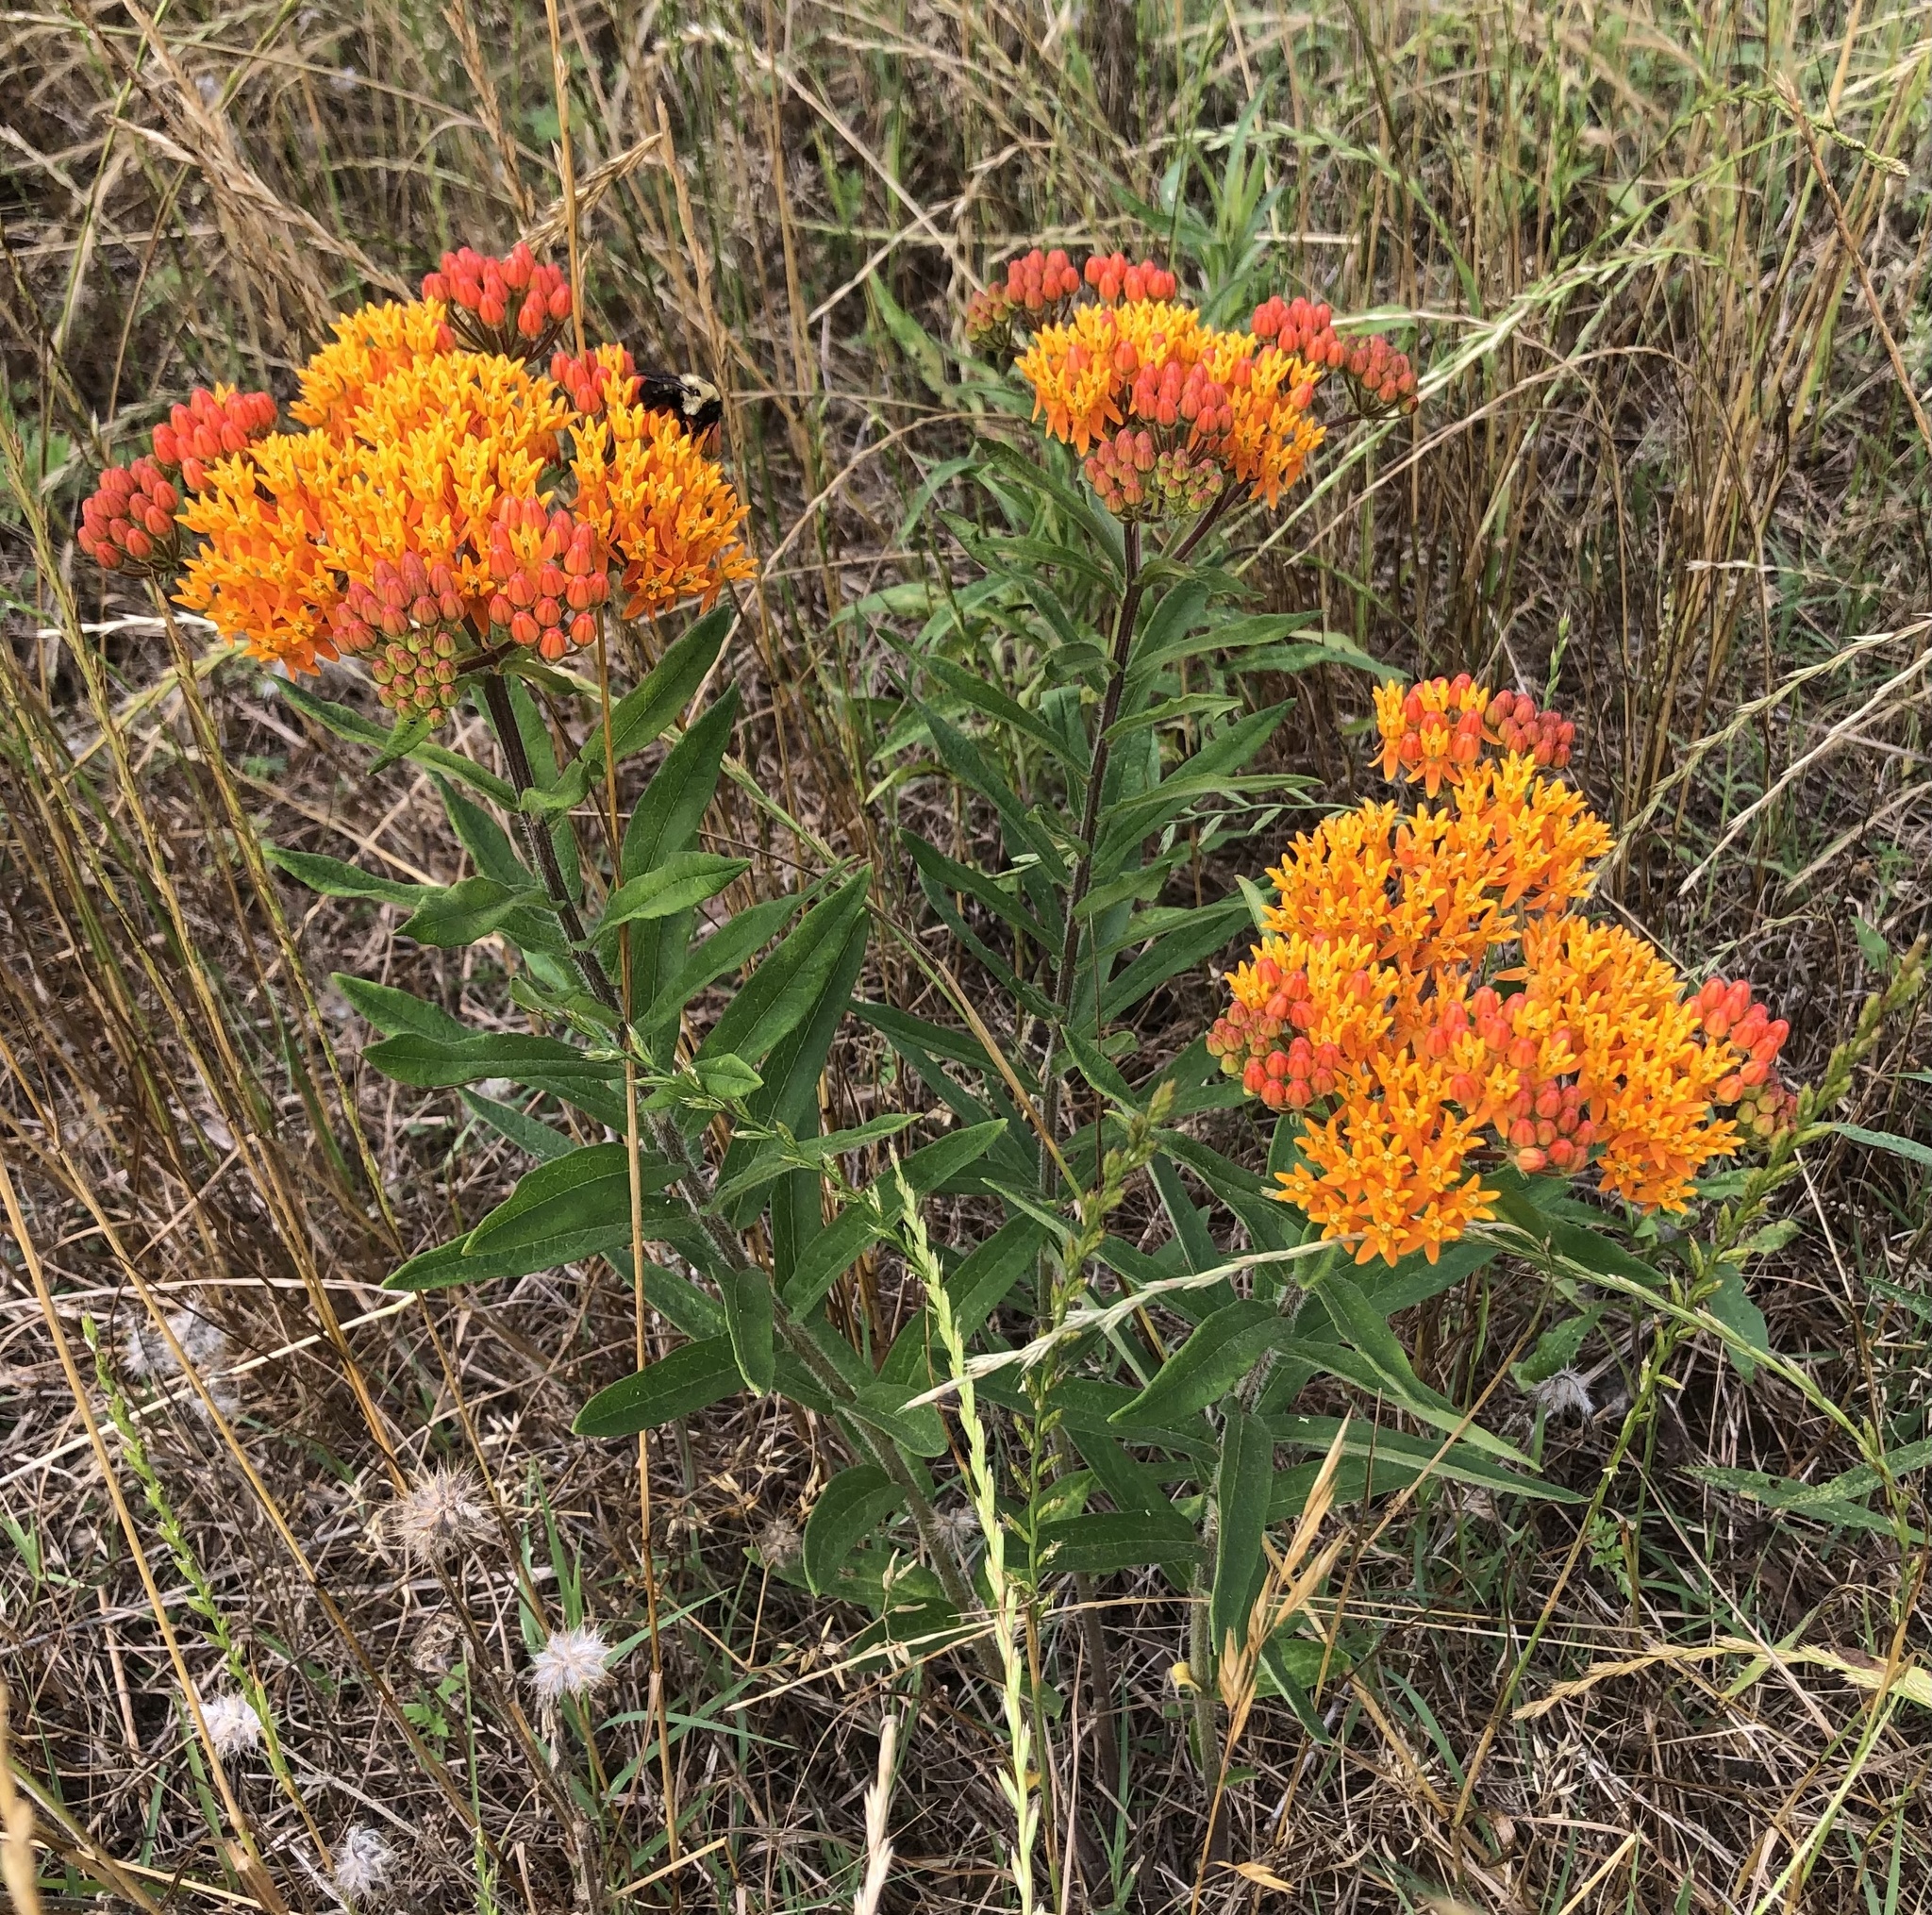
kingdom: Plantae
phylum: Tracheophyta
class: Magnoliopsida
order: Gentianales
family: Apocynaceae
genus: Asclepias
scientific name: Asclepias tuberosa
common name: Butterfly milkweed
